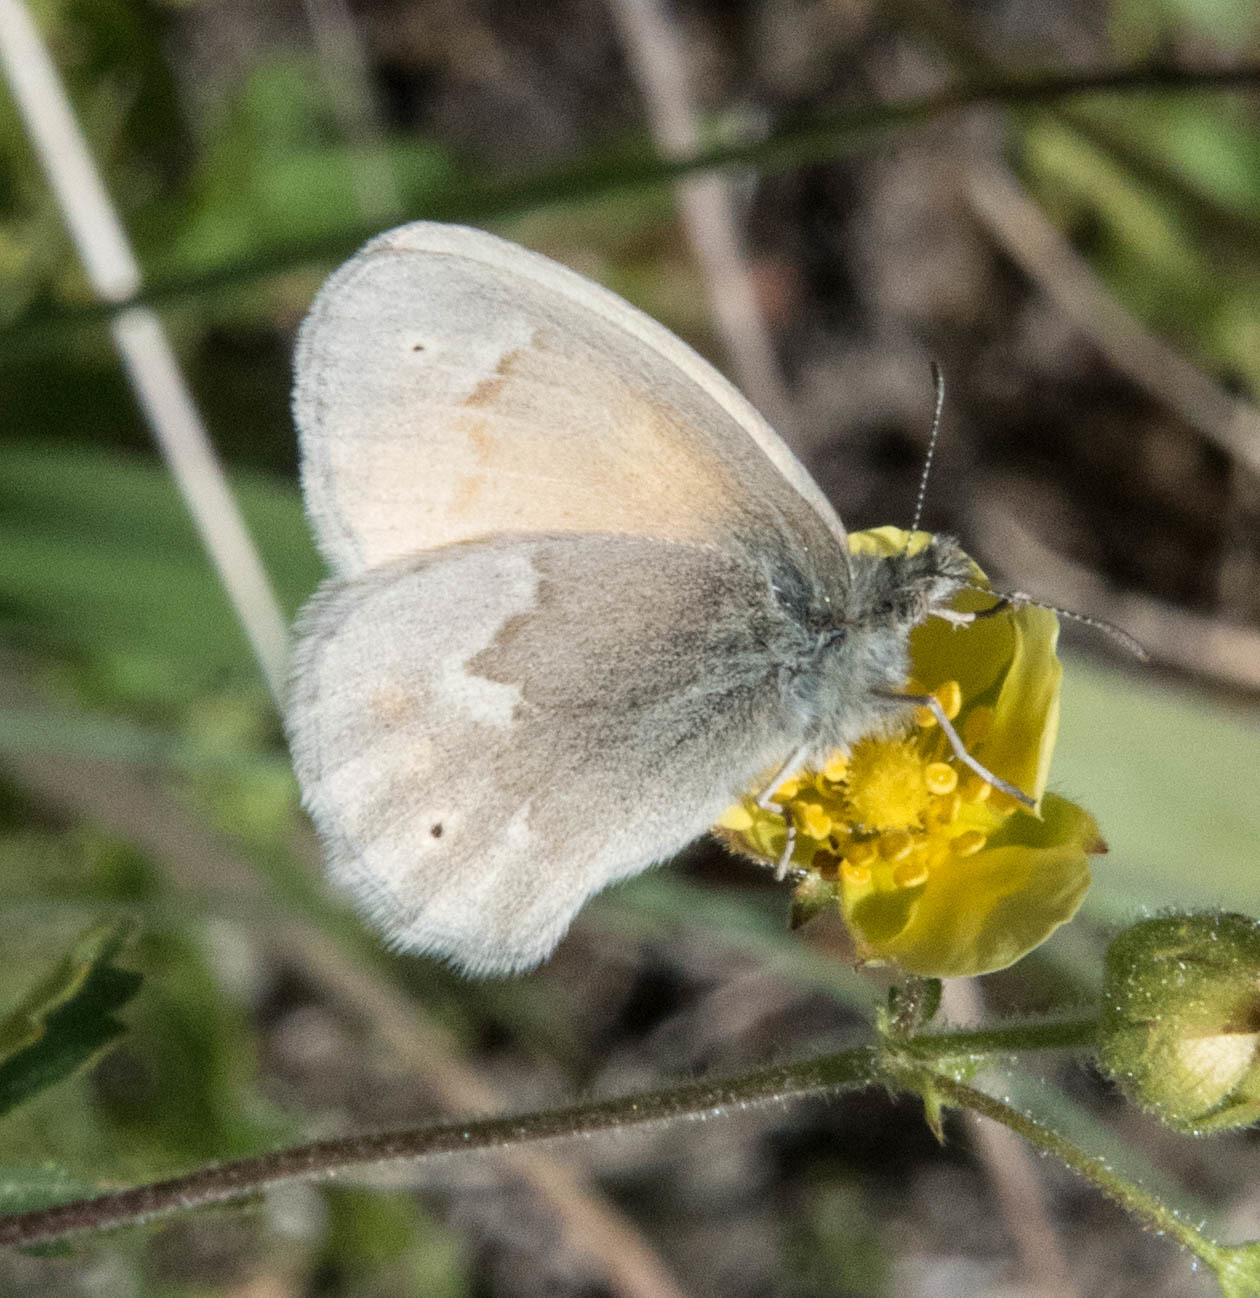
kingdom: Animalia
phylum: Arthropoda
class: Insecta
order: Lepidoptera
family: Nymphalidae
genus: Coenonympha
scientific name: Coenonympha california
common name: Common ringlet
